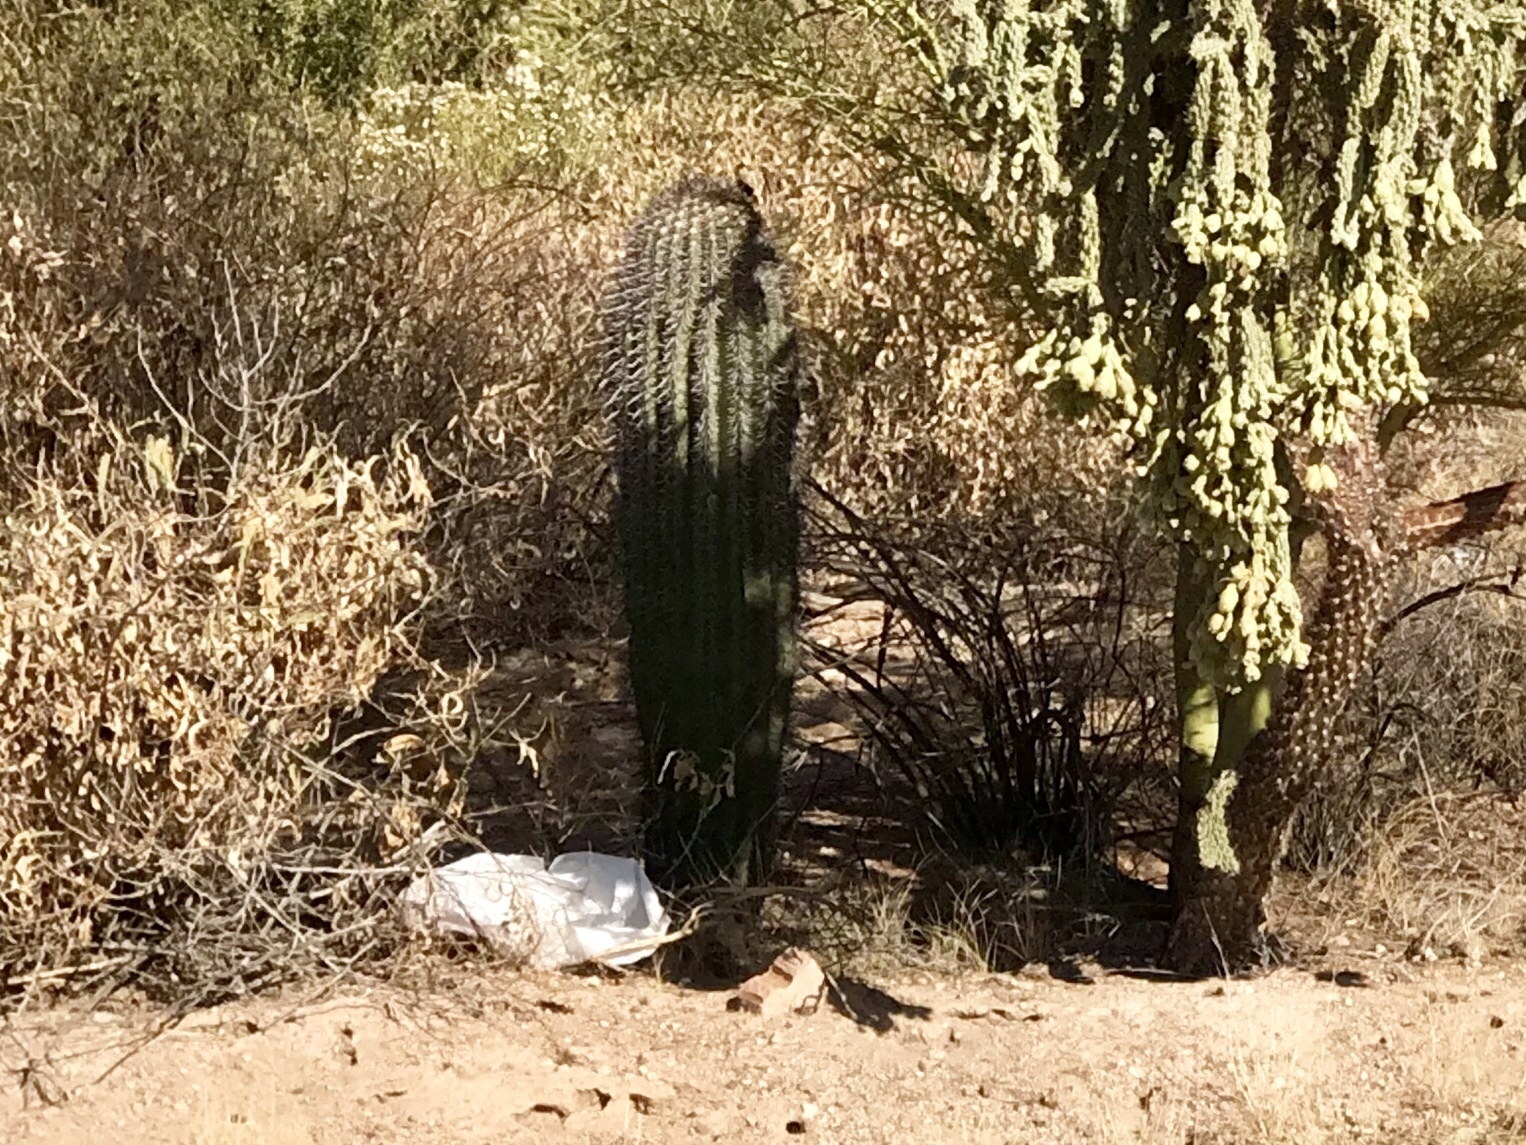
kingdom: Plantae
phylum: Tracheophyta
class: Magnoliopsida
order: Caryophyllales
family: Cactaceae
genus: Carnegiea
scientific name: Carnegiea gigantea
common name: Saguaro
